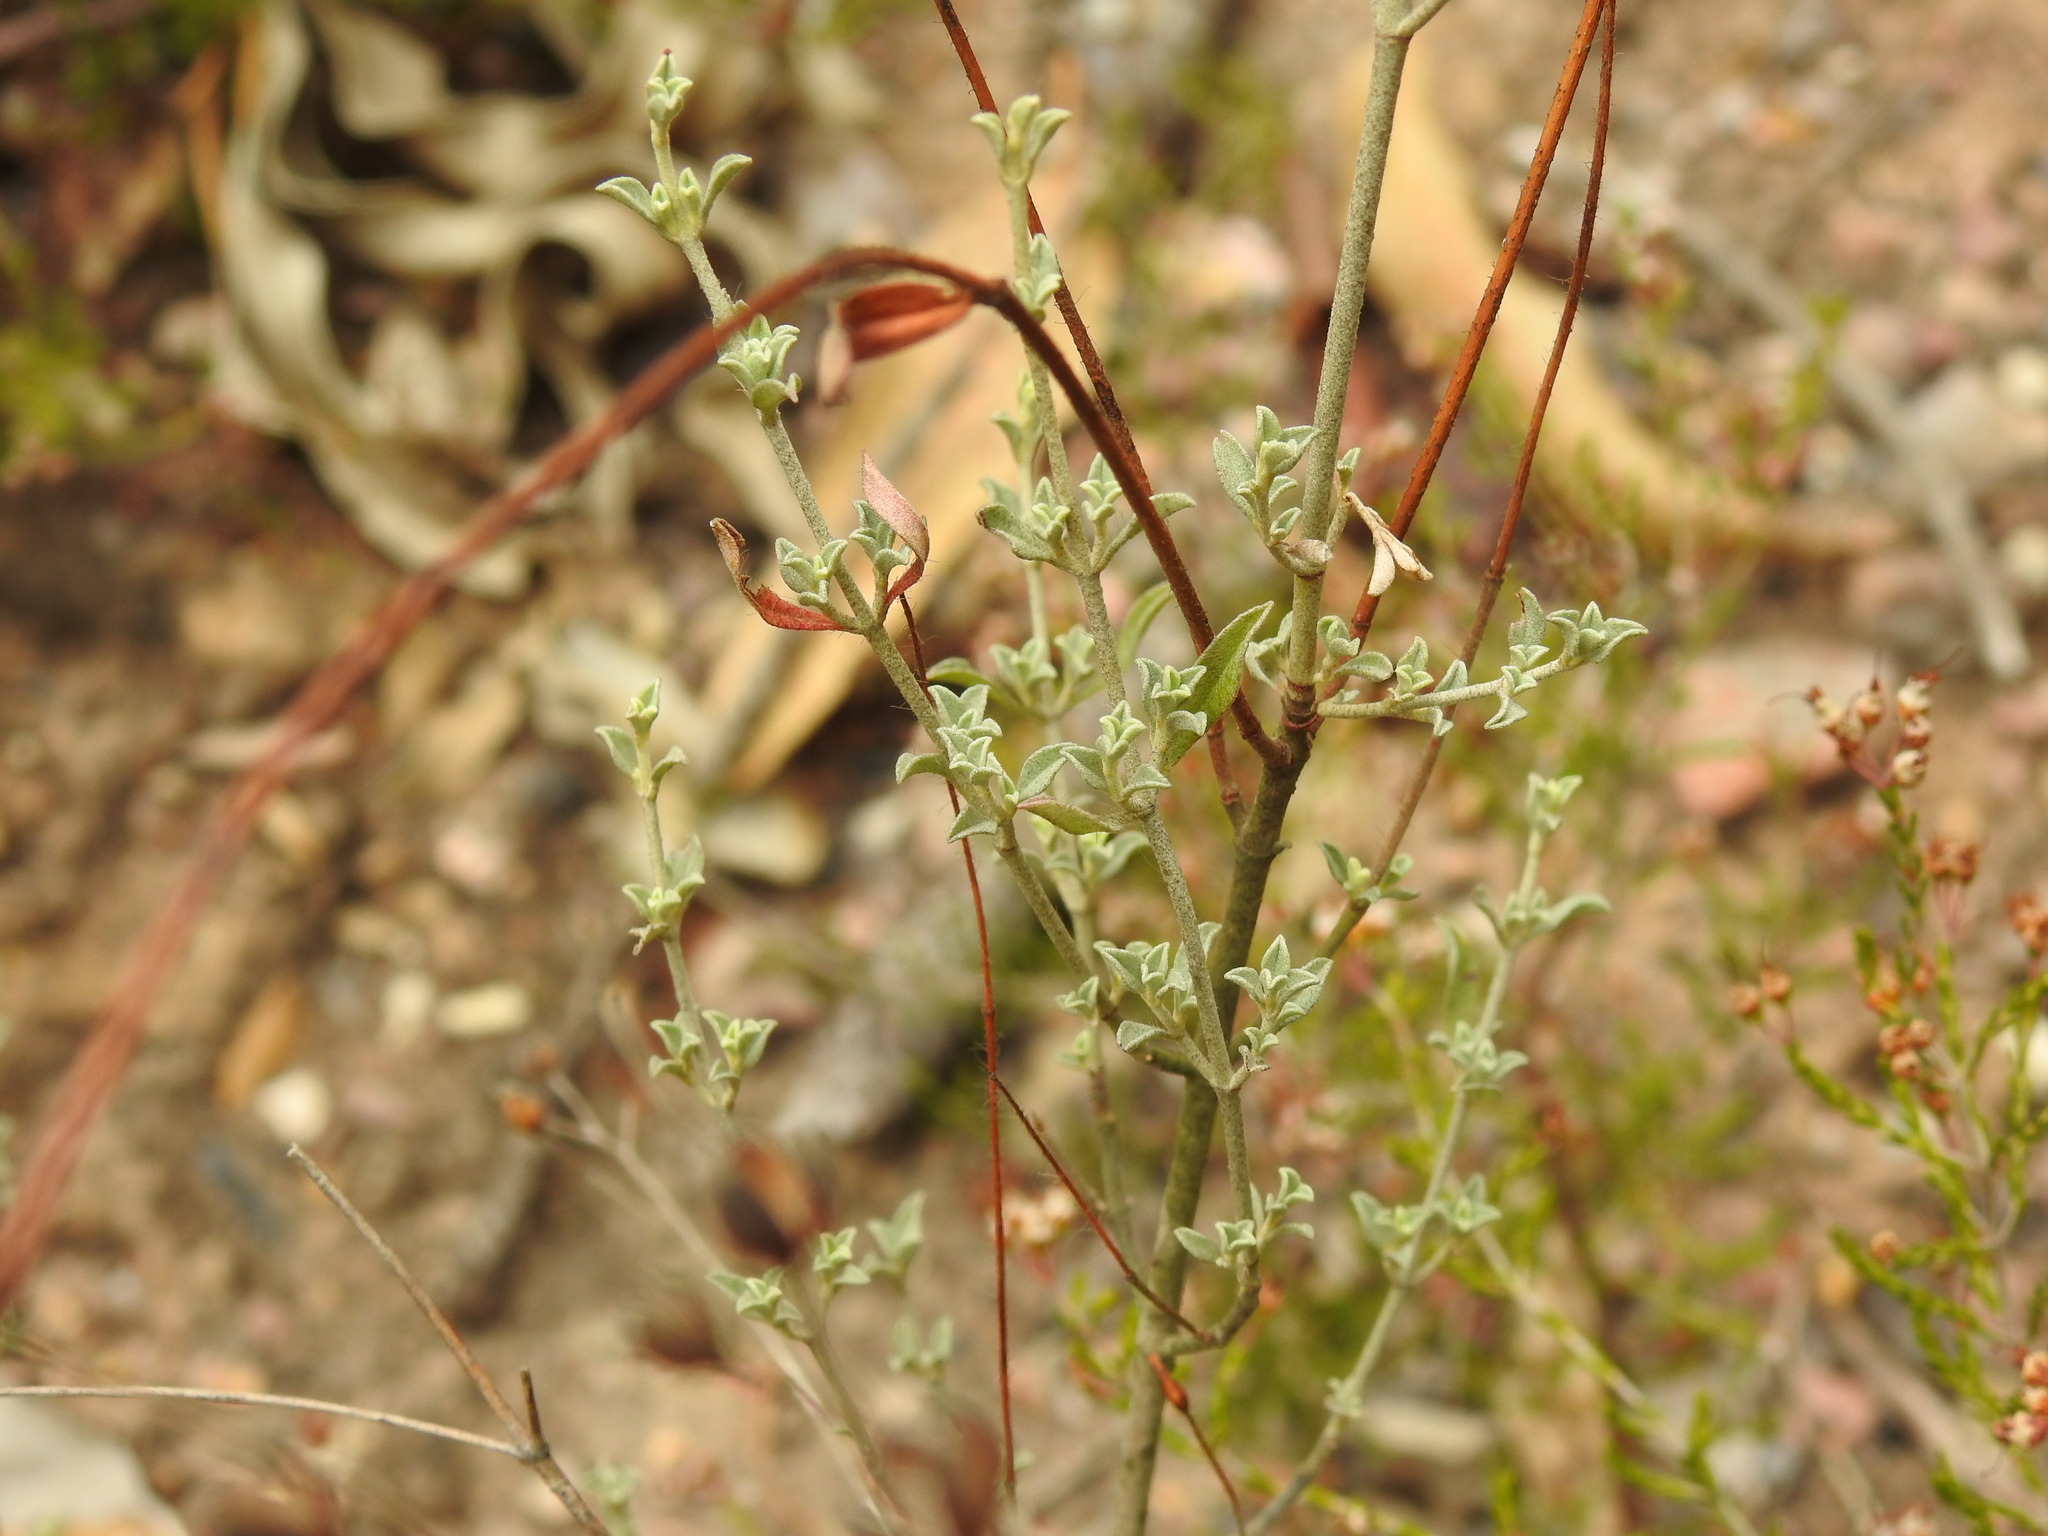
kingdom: Plantae
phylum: Tracheophyta
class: Magnoliopsida
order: Malvales
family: Cistaceae
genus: Cistus
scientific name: Cistus ocymoides
